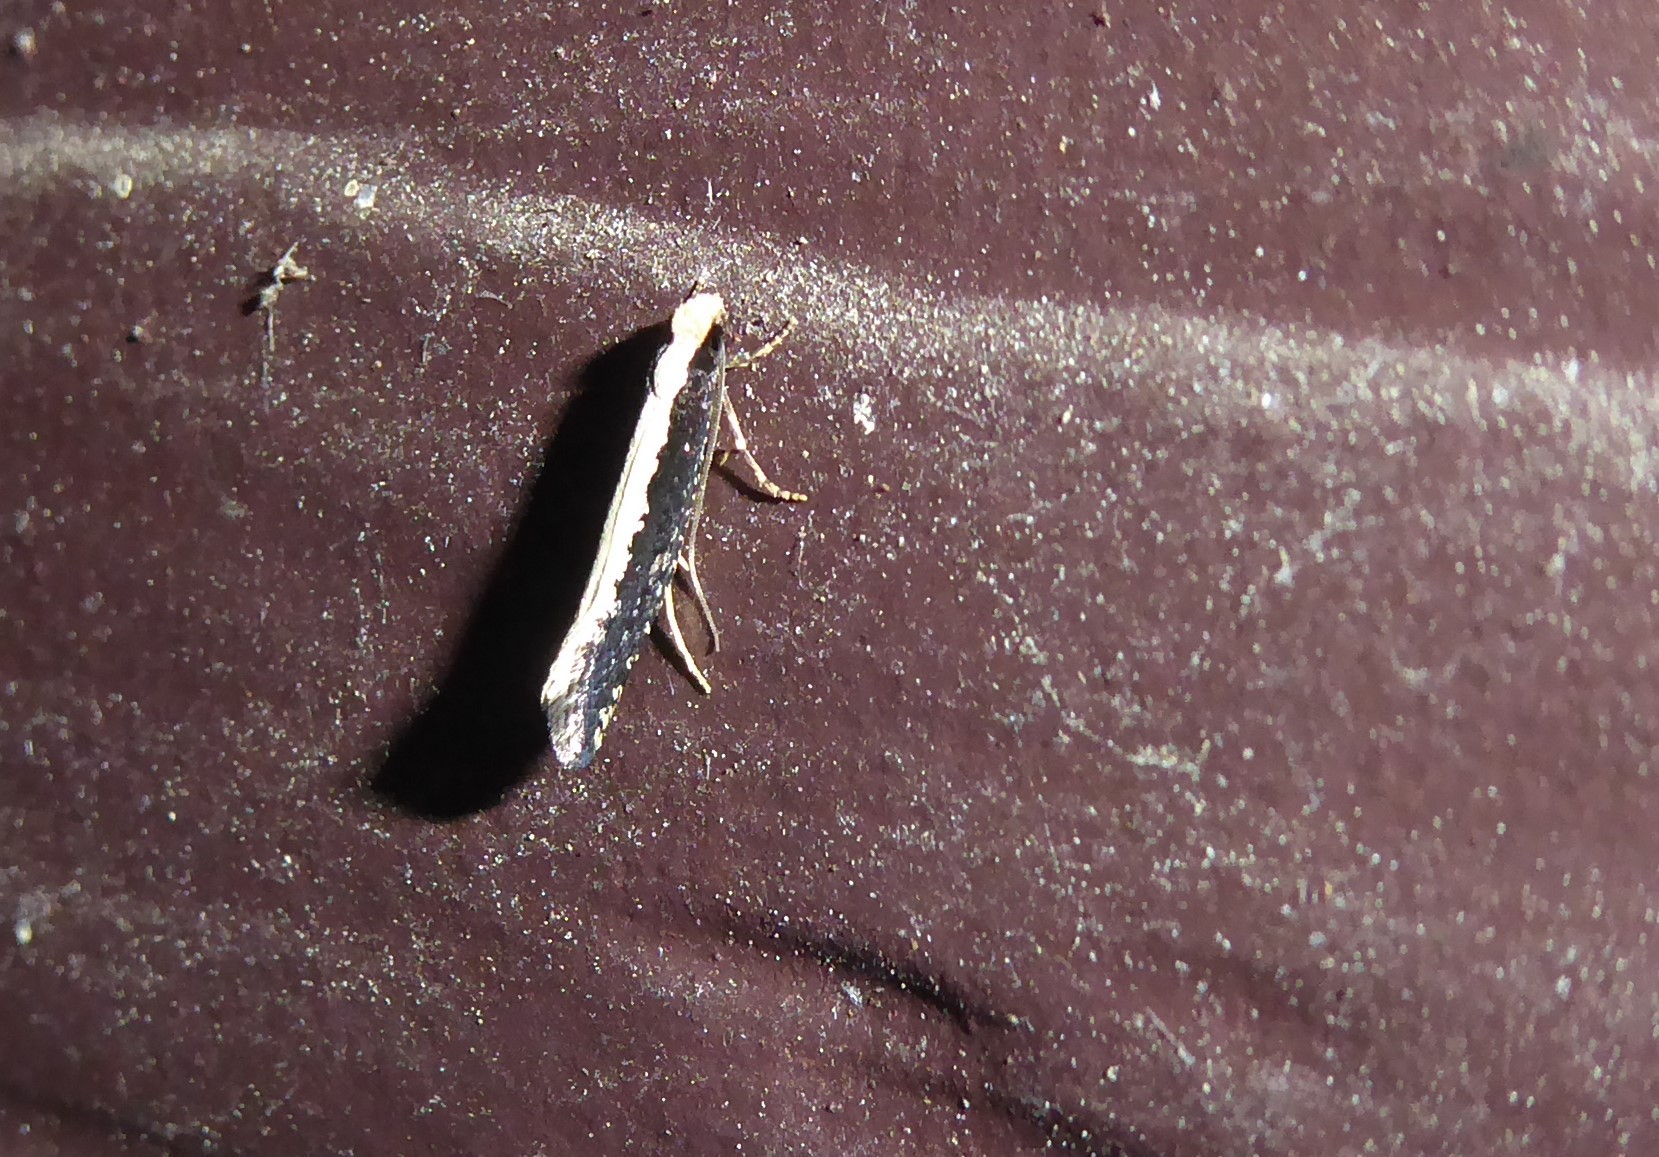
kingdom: Animalia
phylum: Arthropoda
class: Insecta
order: Lepidoptera
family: Tineidae
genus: Monopis
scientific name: Monopis ethelella
